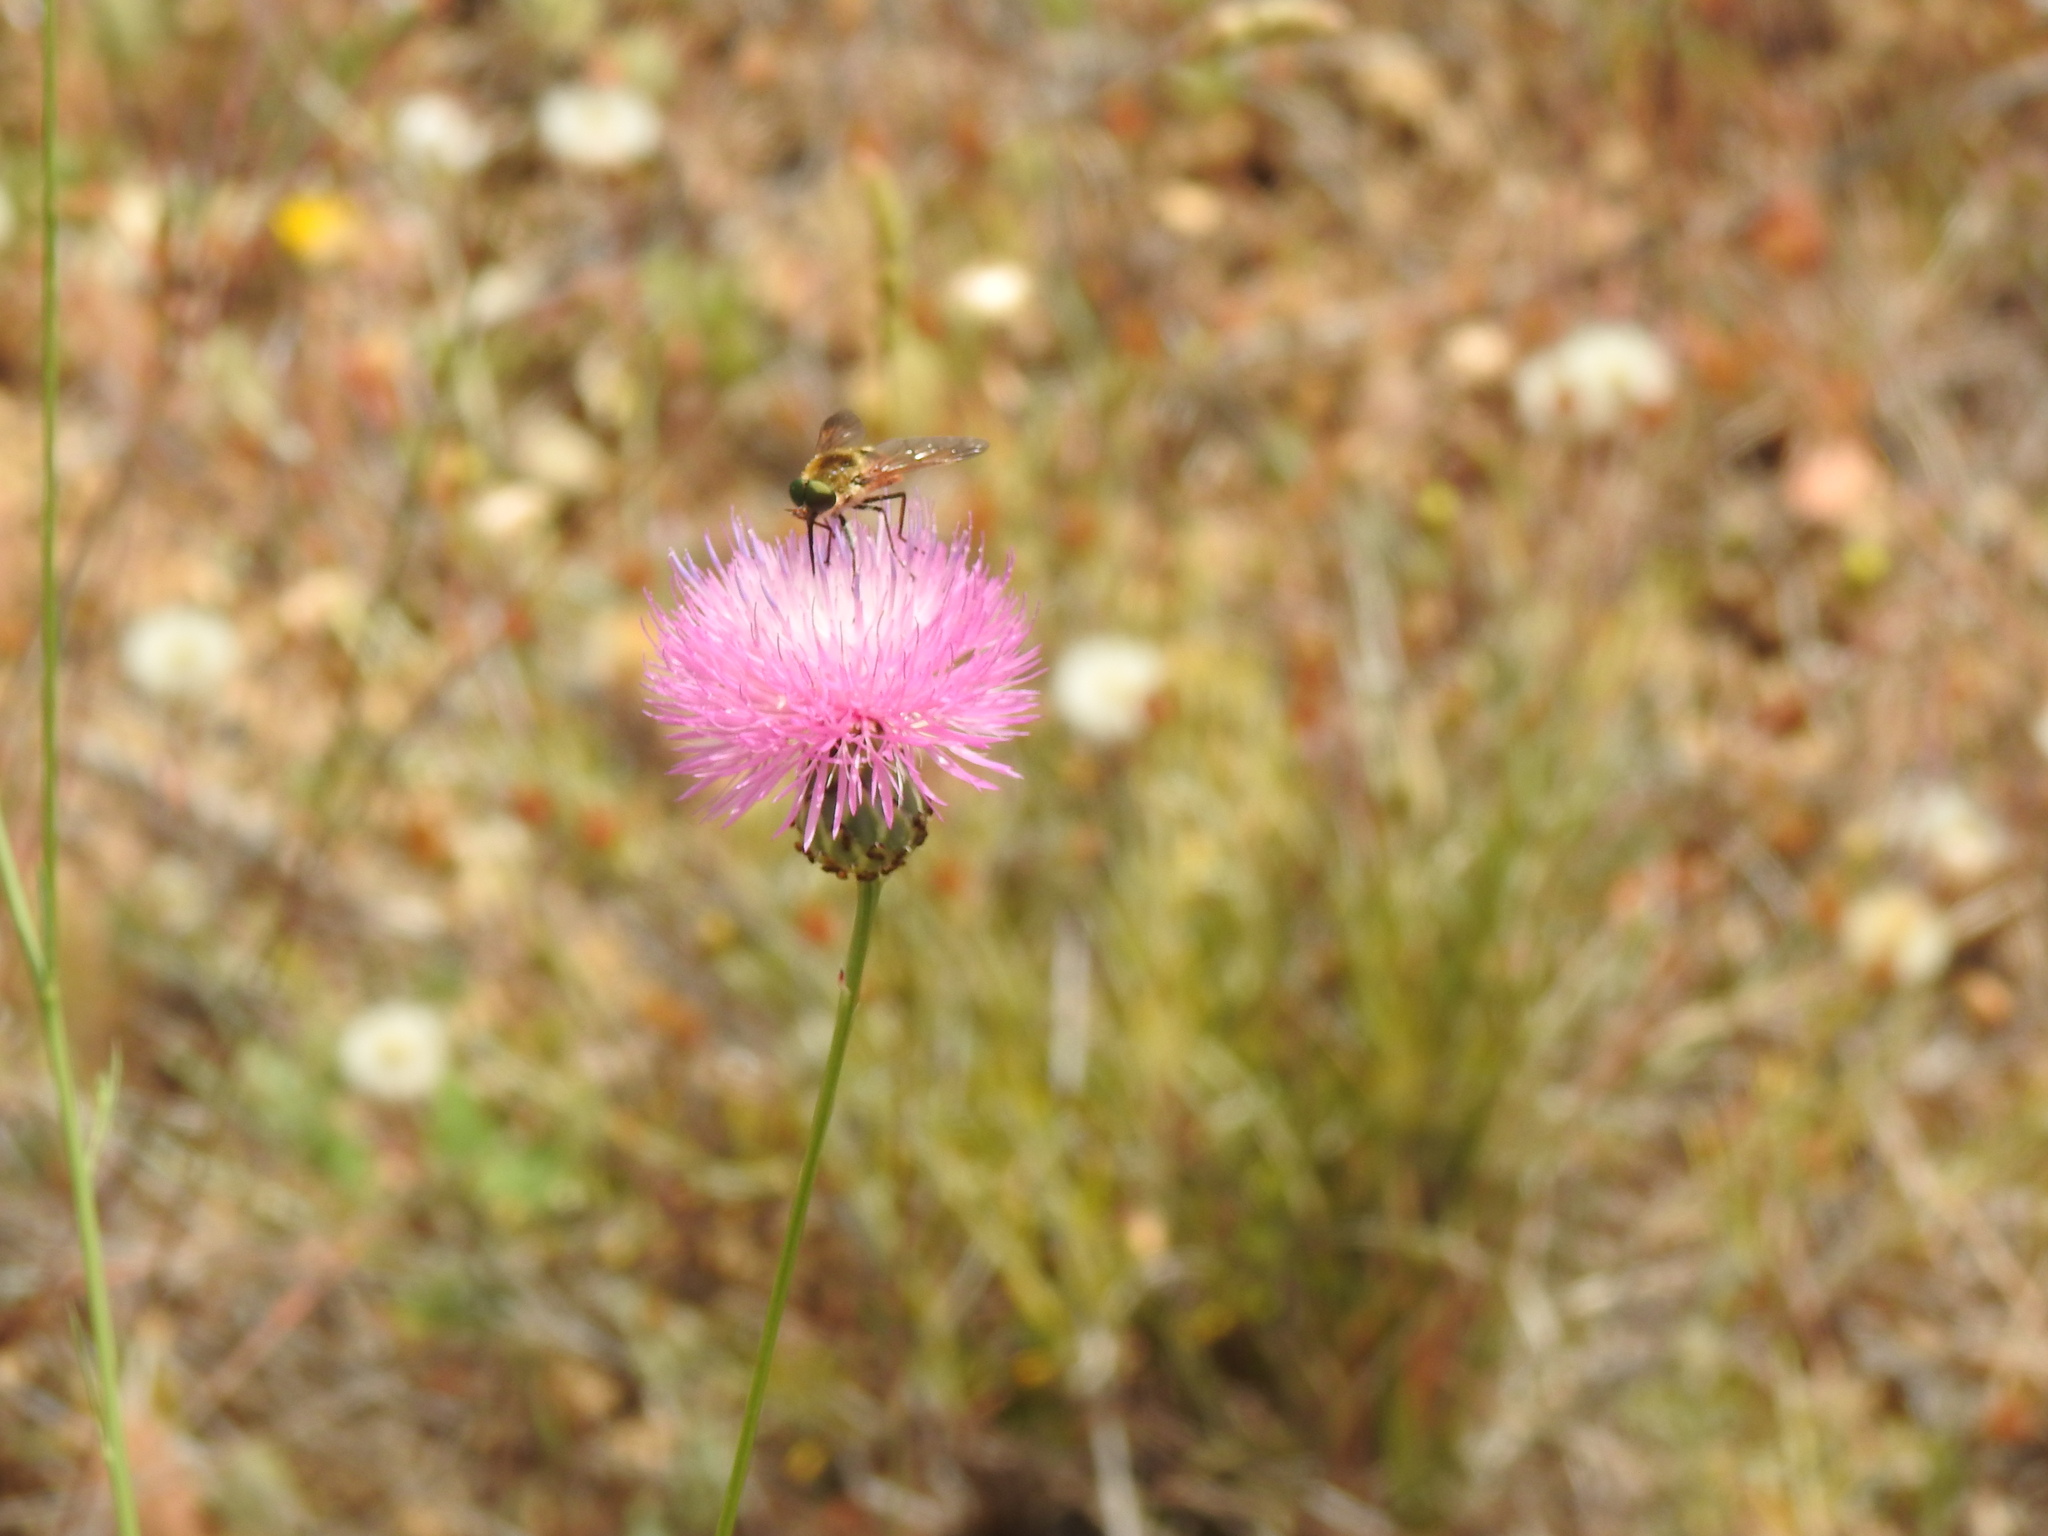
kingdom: Plantae
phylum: Tracheophyta
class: Magnoliopsida
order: Asterales
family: Asteraceae
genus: Mantisalca
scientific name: Mantisalca salmantica
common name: Dagger flower
